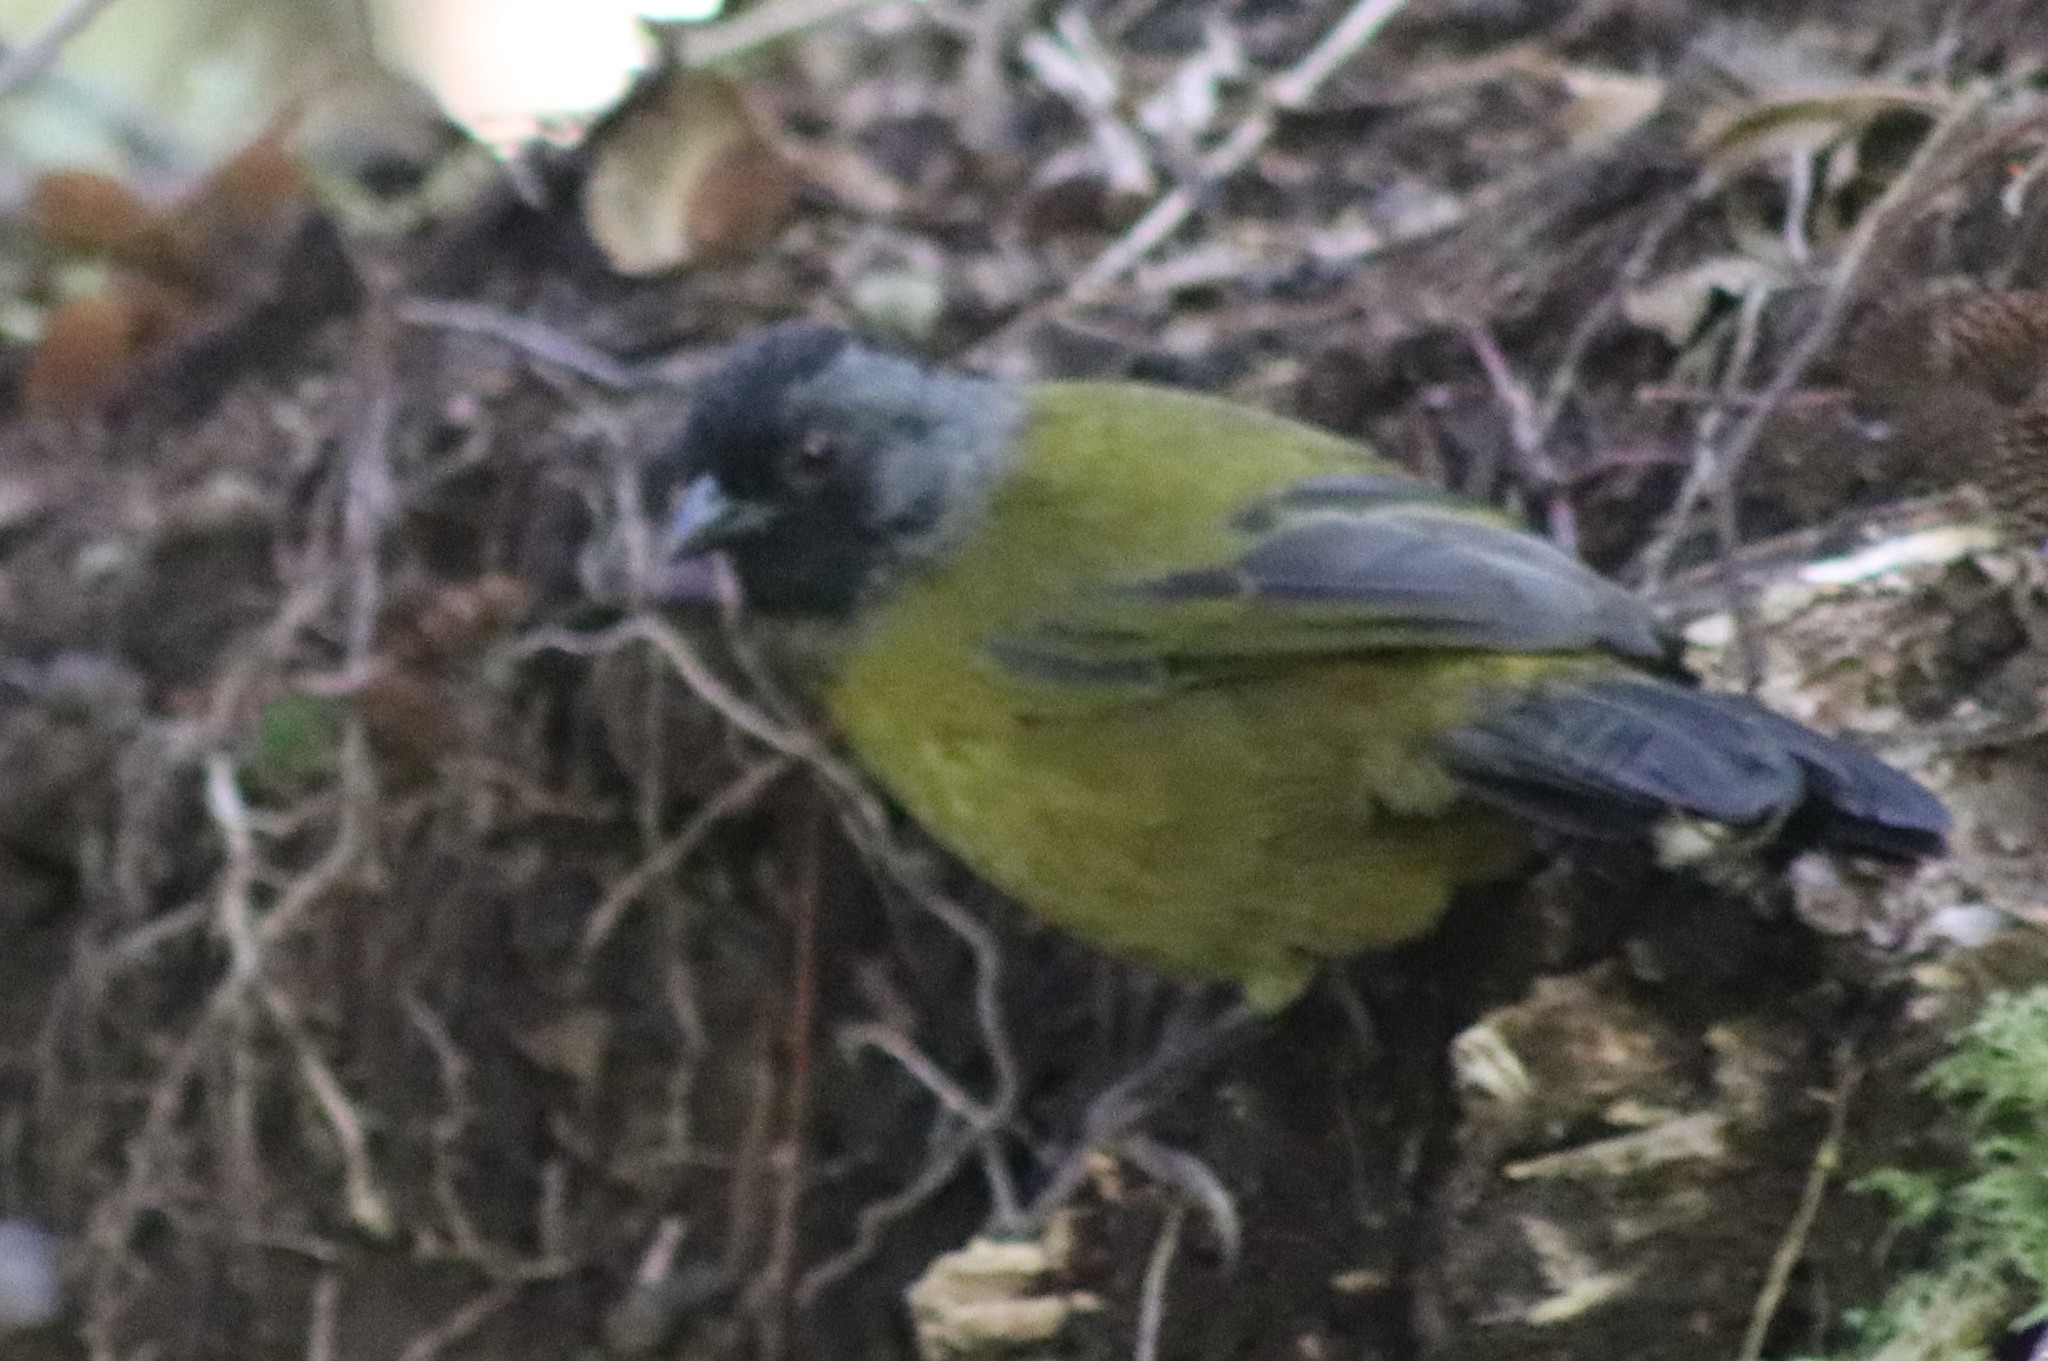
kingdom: Animalia
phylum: Chordata
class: Aves
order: Passeriformes
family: Passerellidae
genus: Pezopetes
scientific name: Pezopetes capitalis
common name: Large-footed finch
